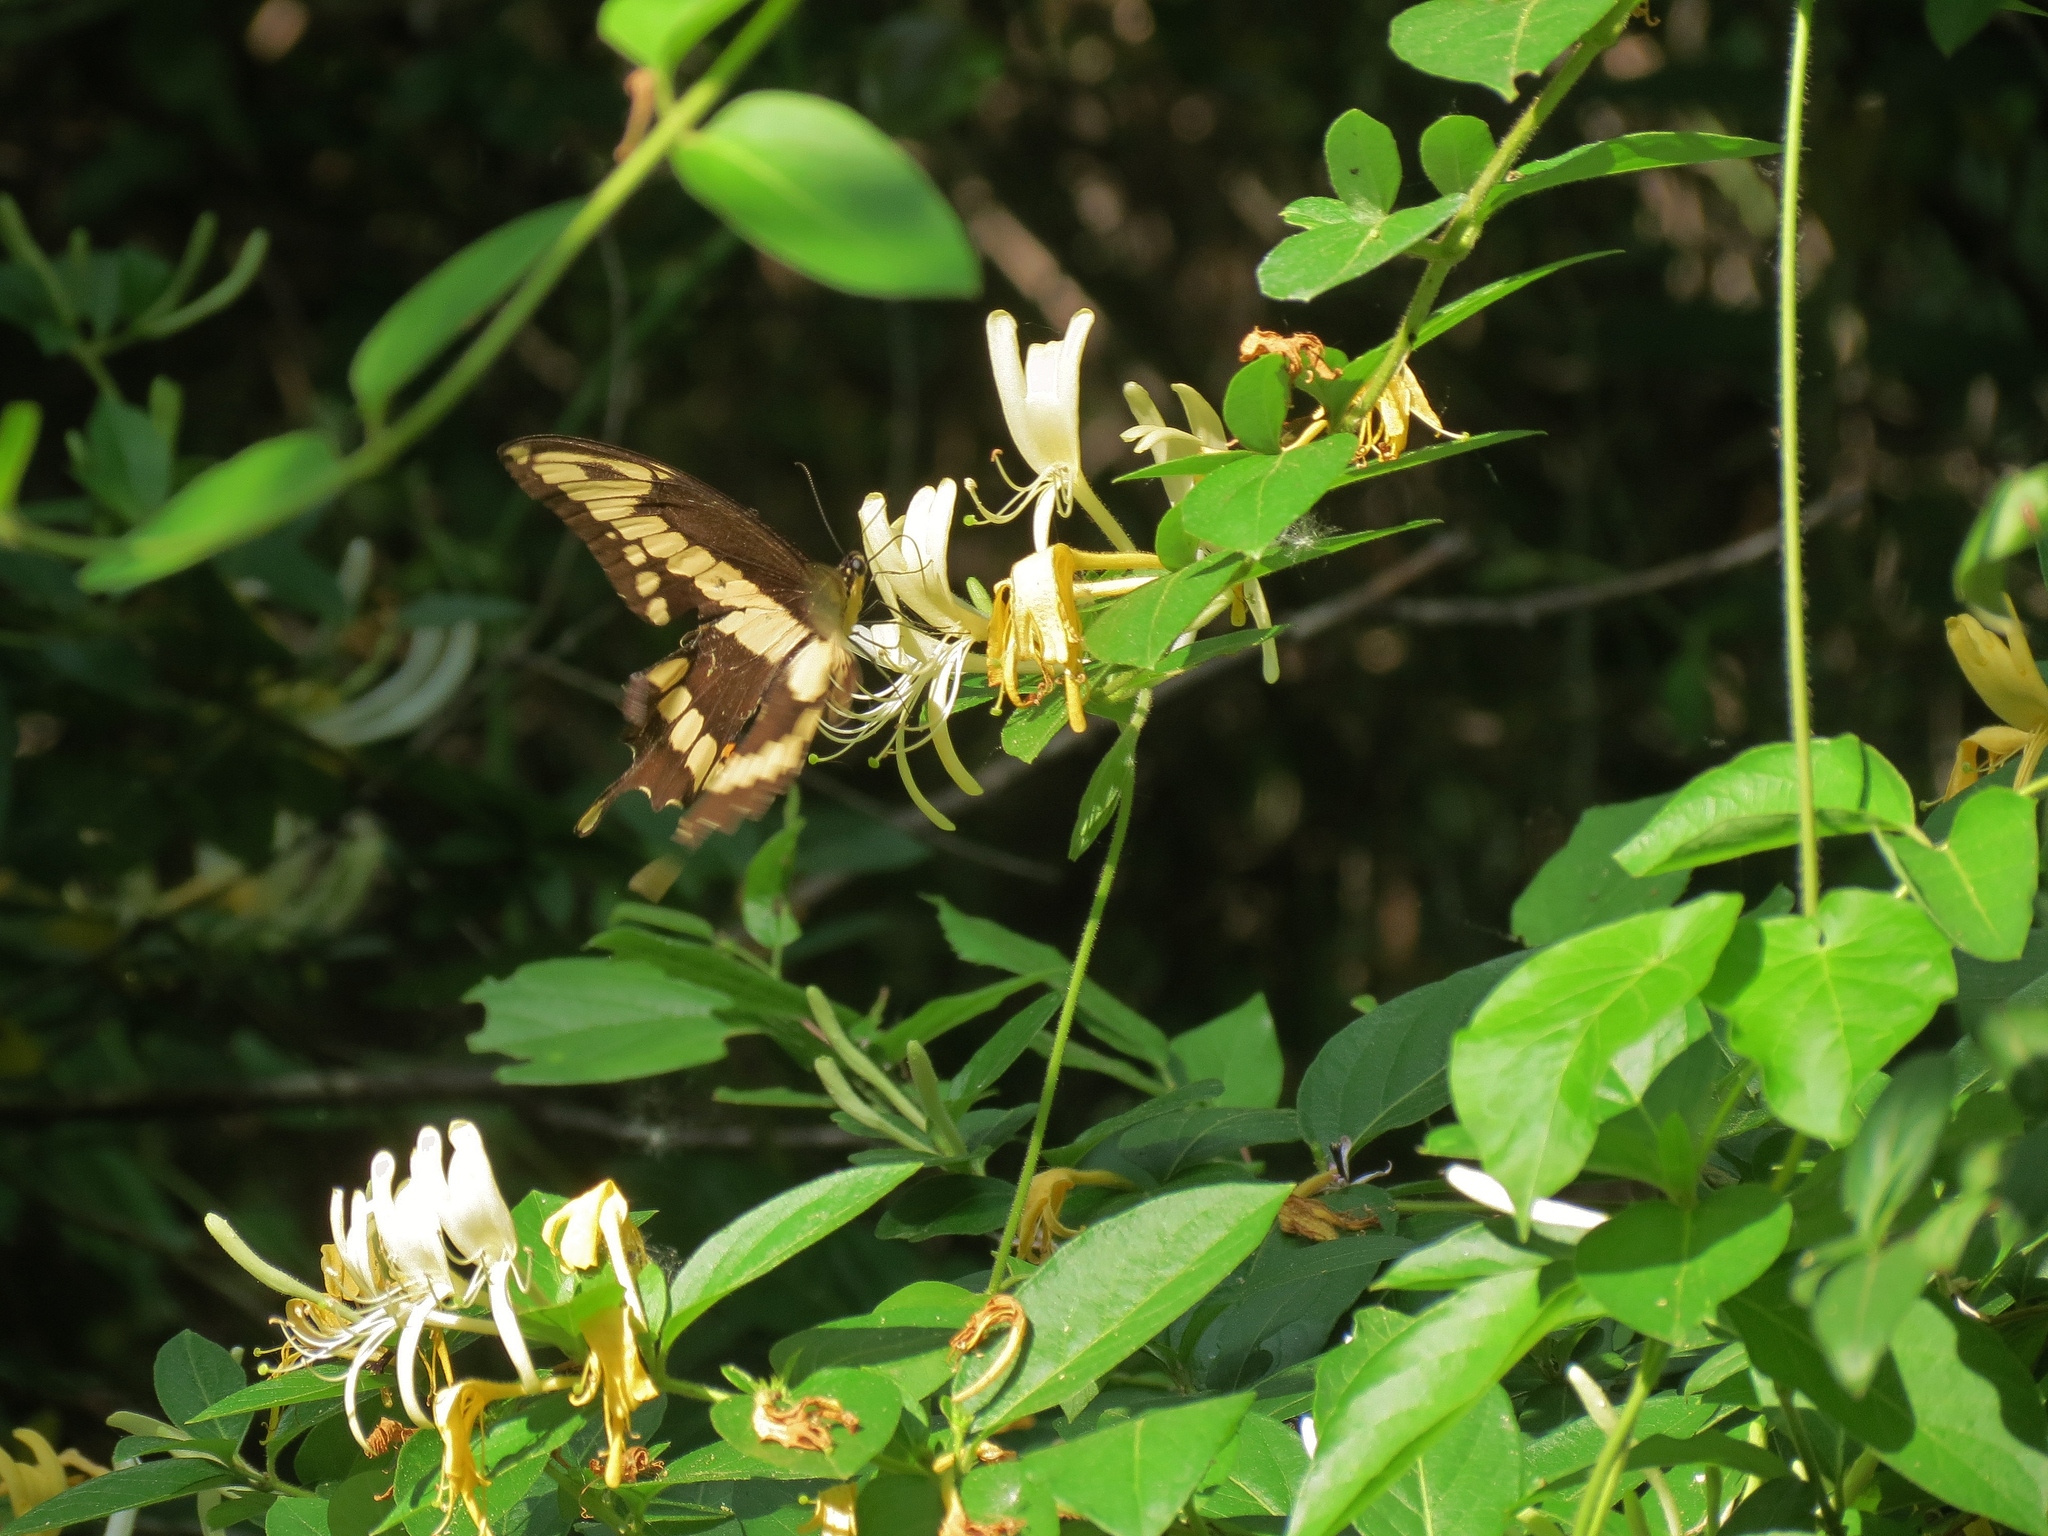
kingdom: Animalia
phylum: Arthropoda
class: Insecta
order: Lepidoptera
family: Papilionidae
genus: Papilio
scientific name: Papilio cresphontes
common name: Giant swallowtail
